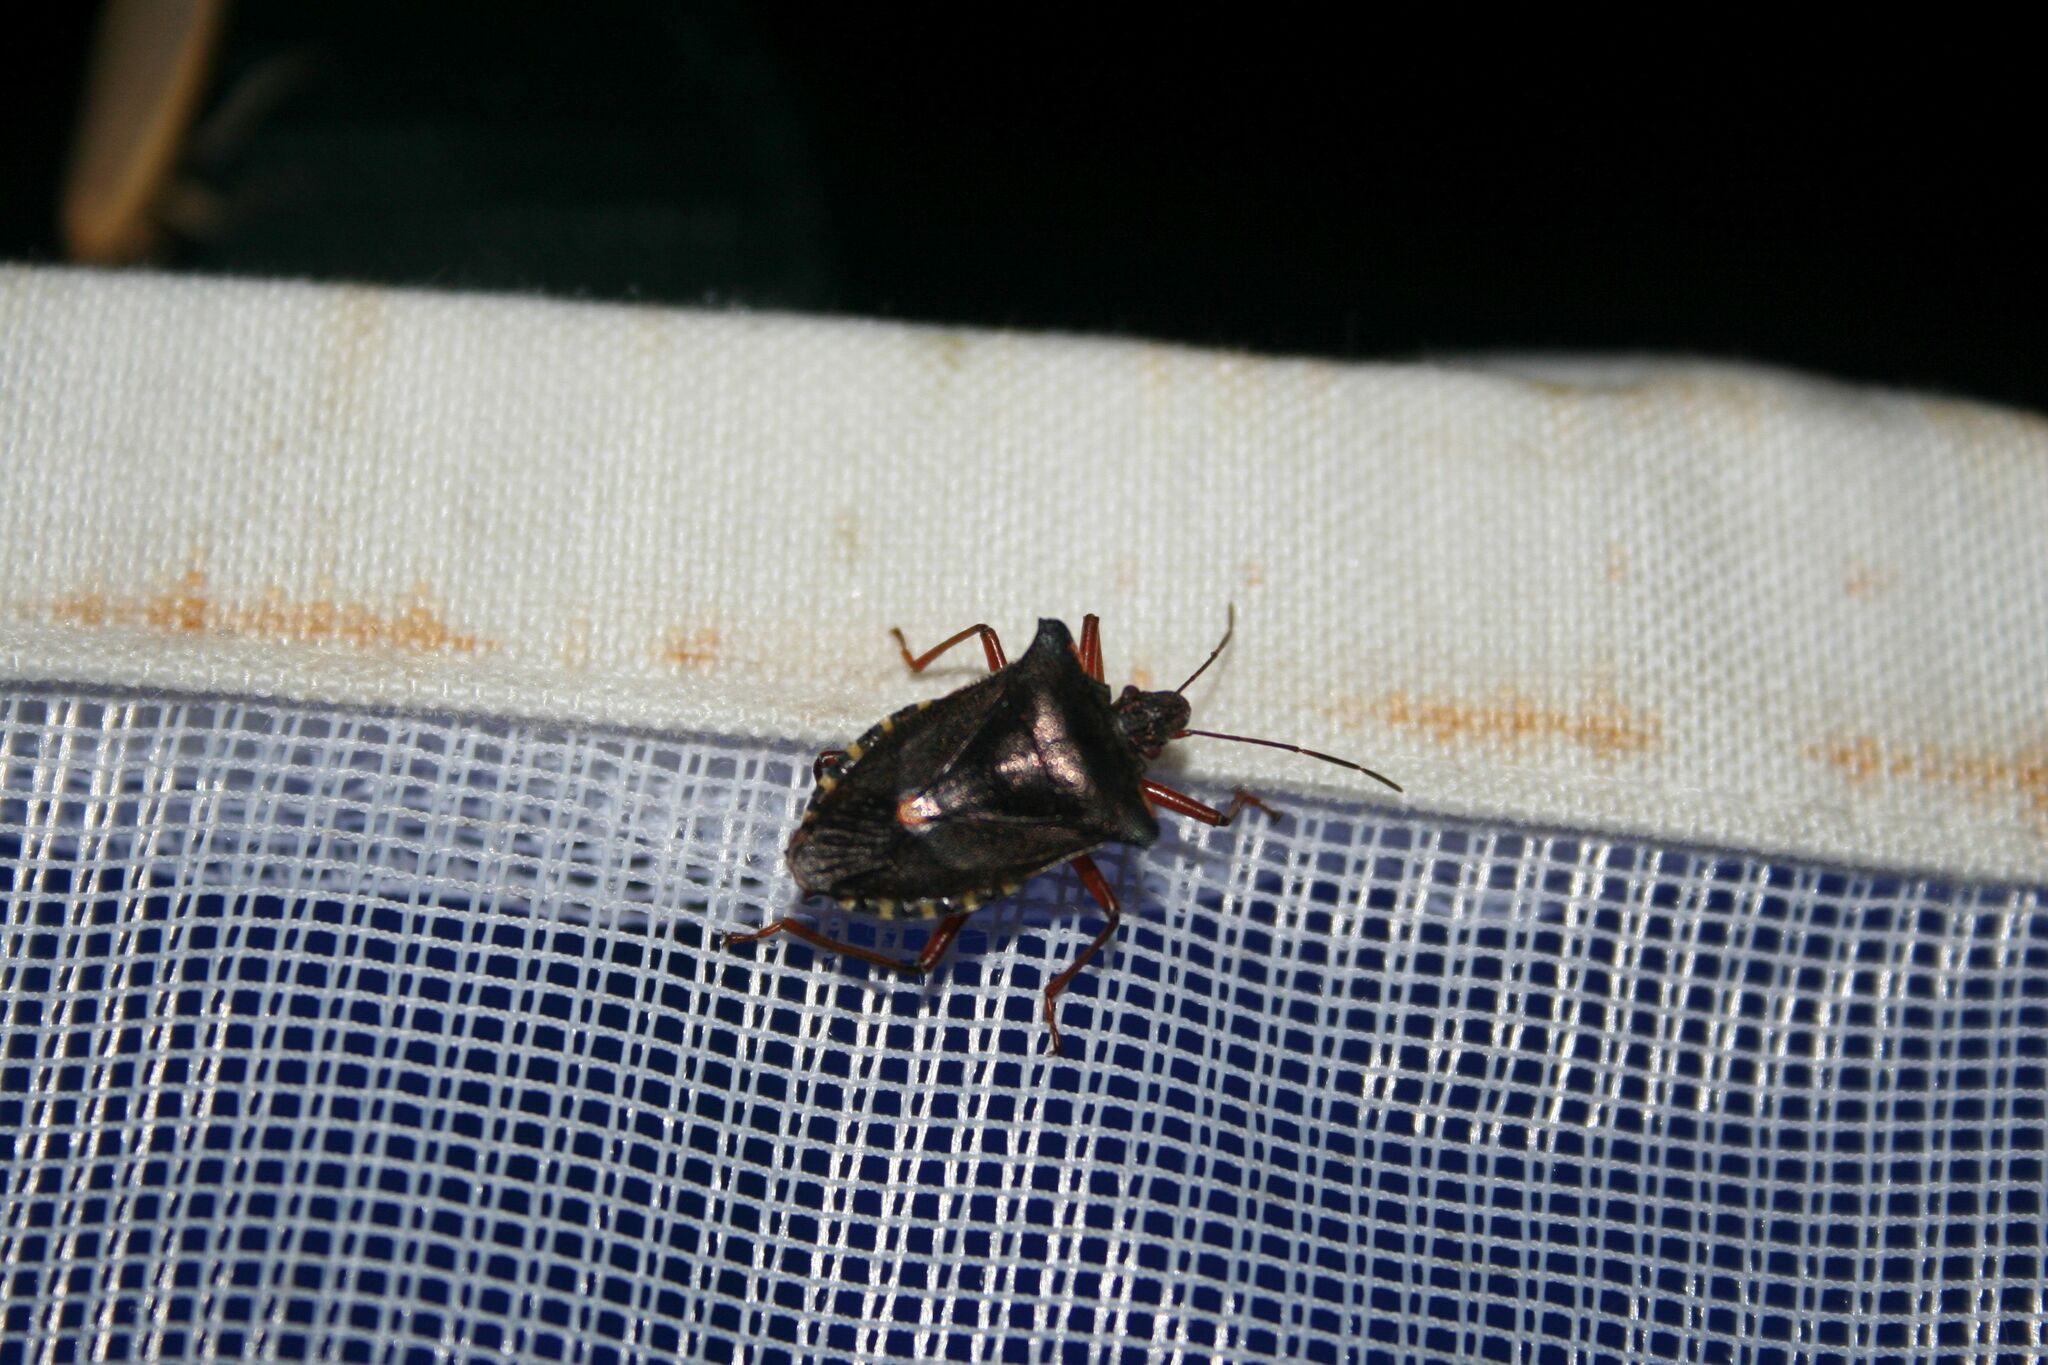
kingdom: Animalia
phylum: Arthropoda
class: Insecta
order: Hemiptera
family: Pentatomidae
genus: Pentatoma
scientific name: Pentatoma rufipes
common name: Forest bug
